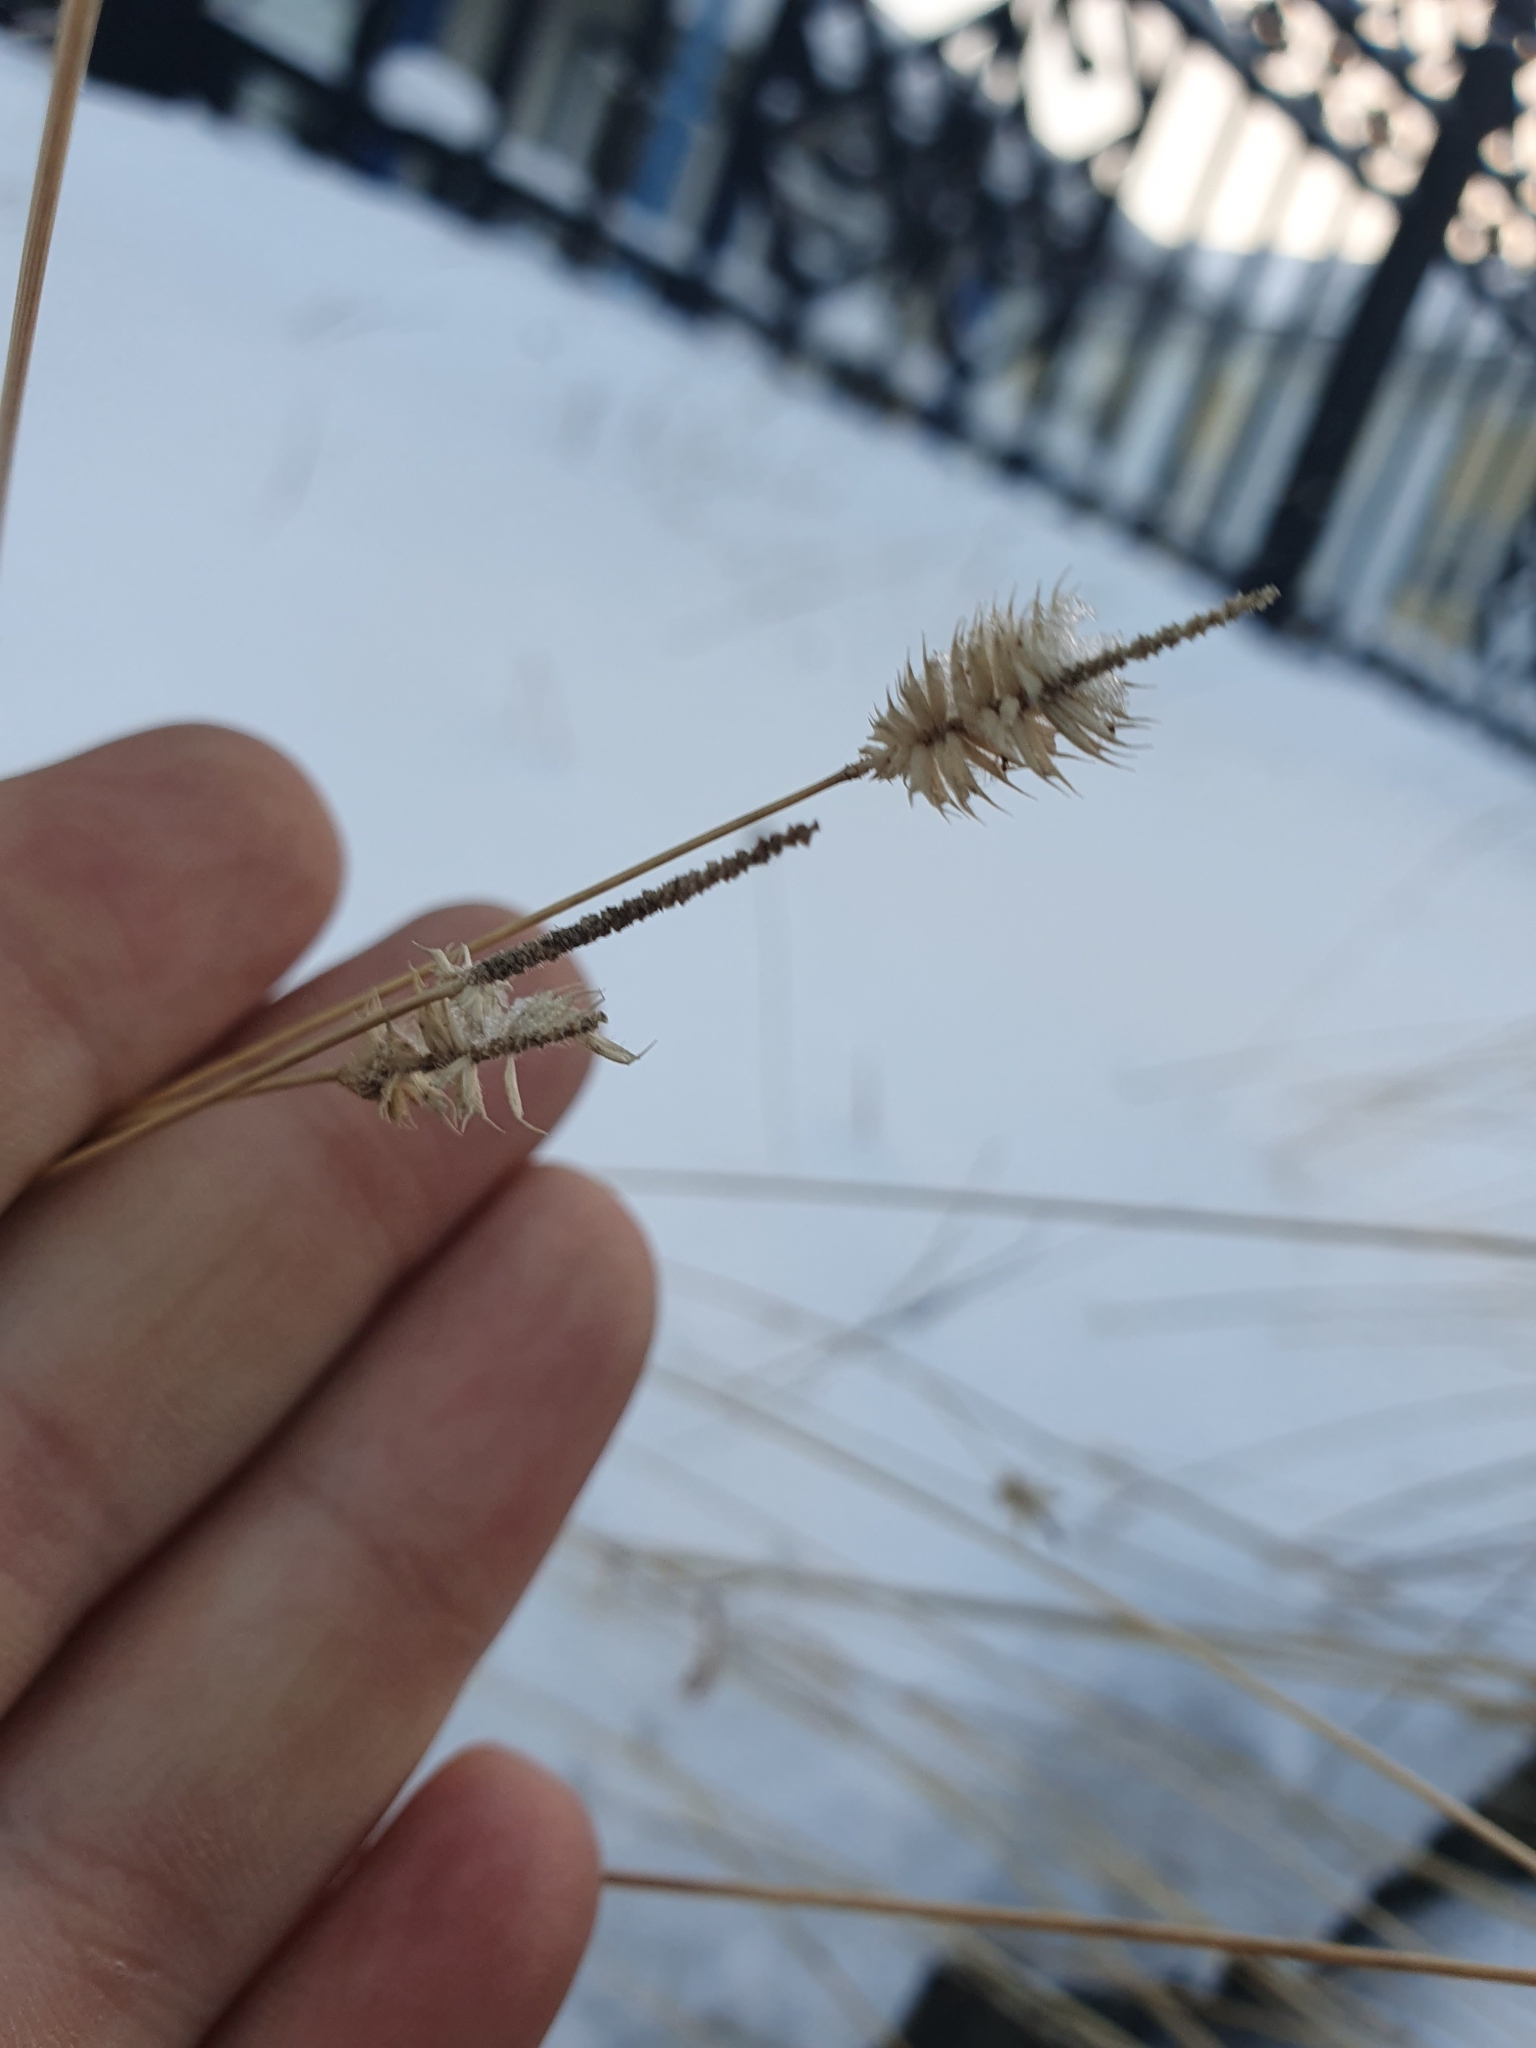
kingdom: Plantae
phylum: Tracheophyta
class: Liliopsida
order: Poales
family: Poaceae
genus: Phleum
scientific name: Phleum pratense
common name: Timothy grass
